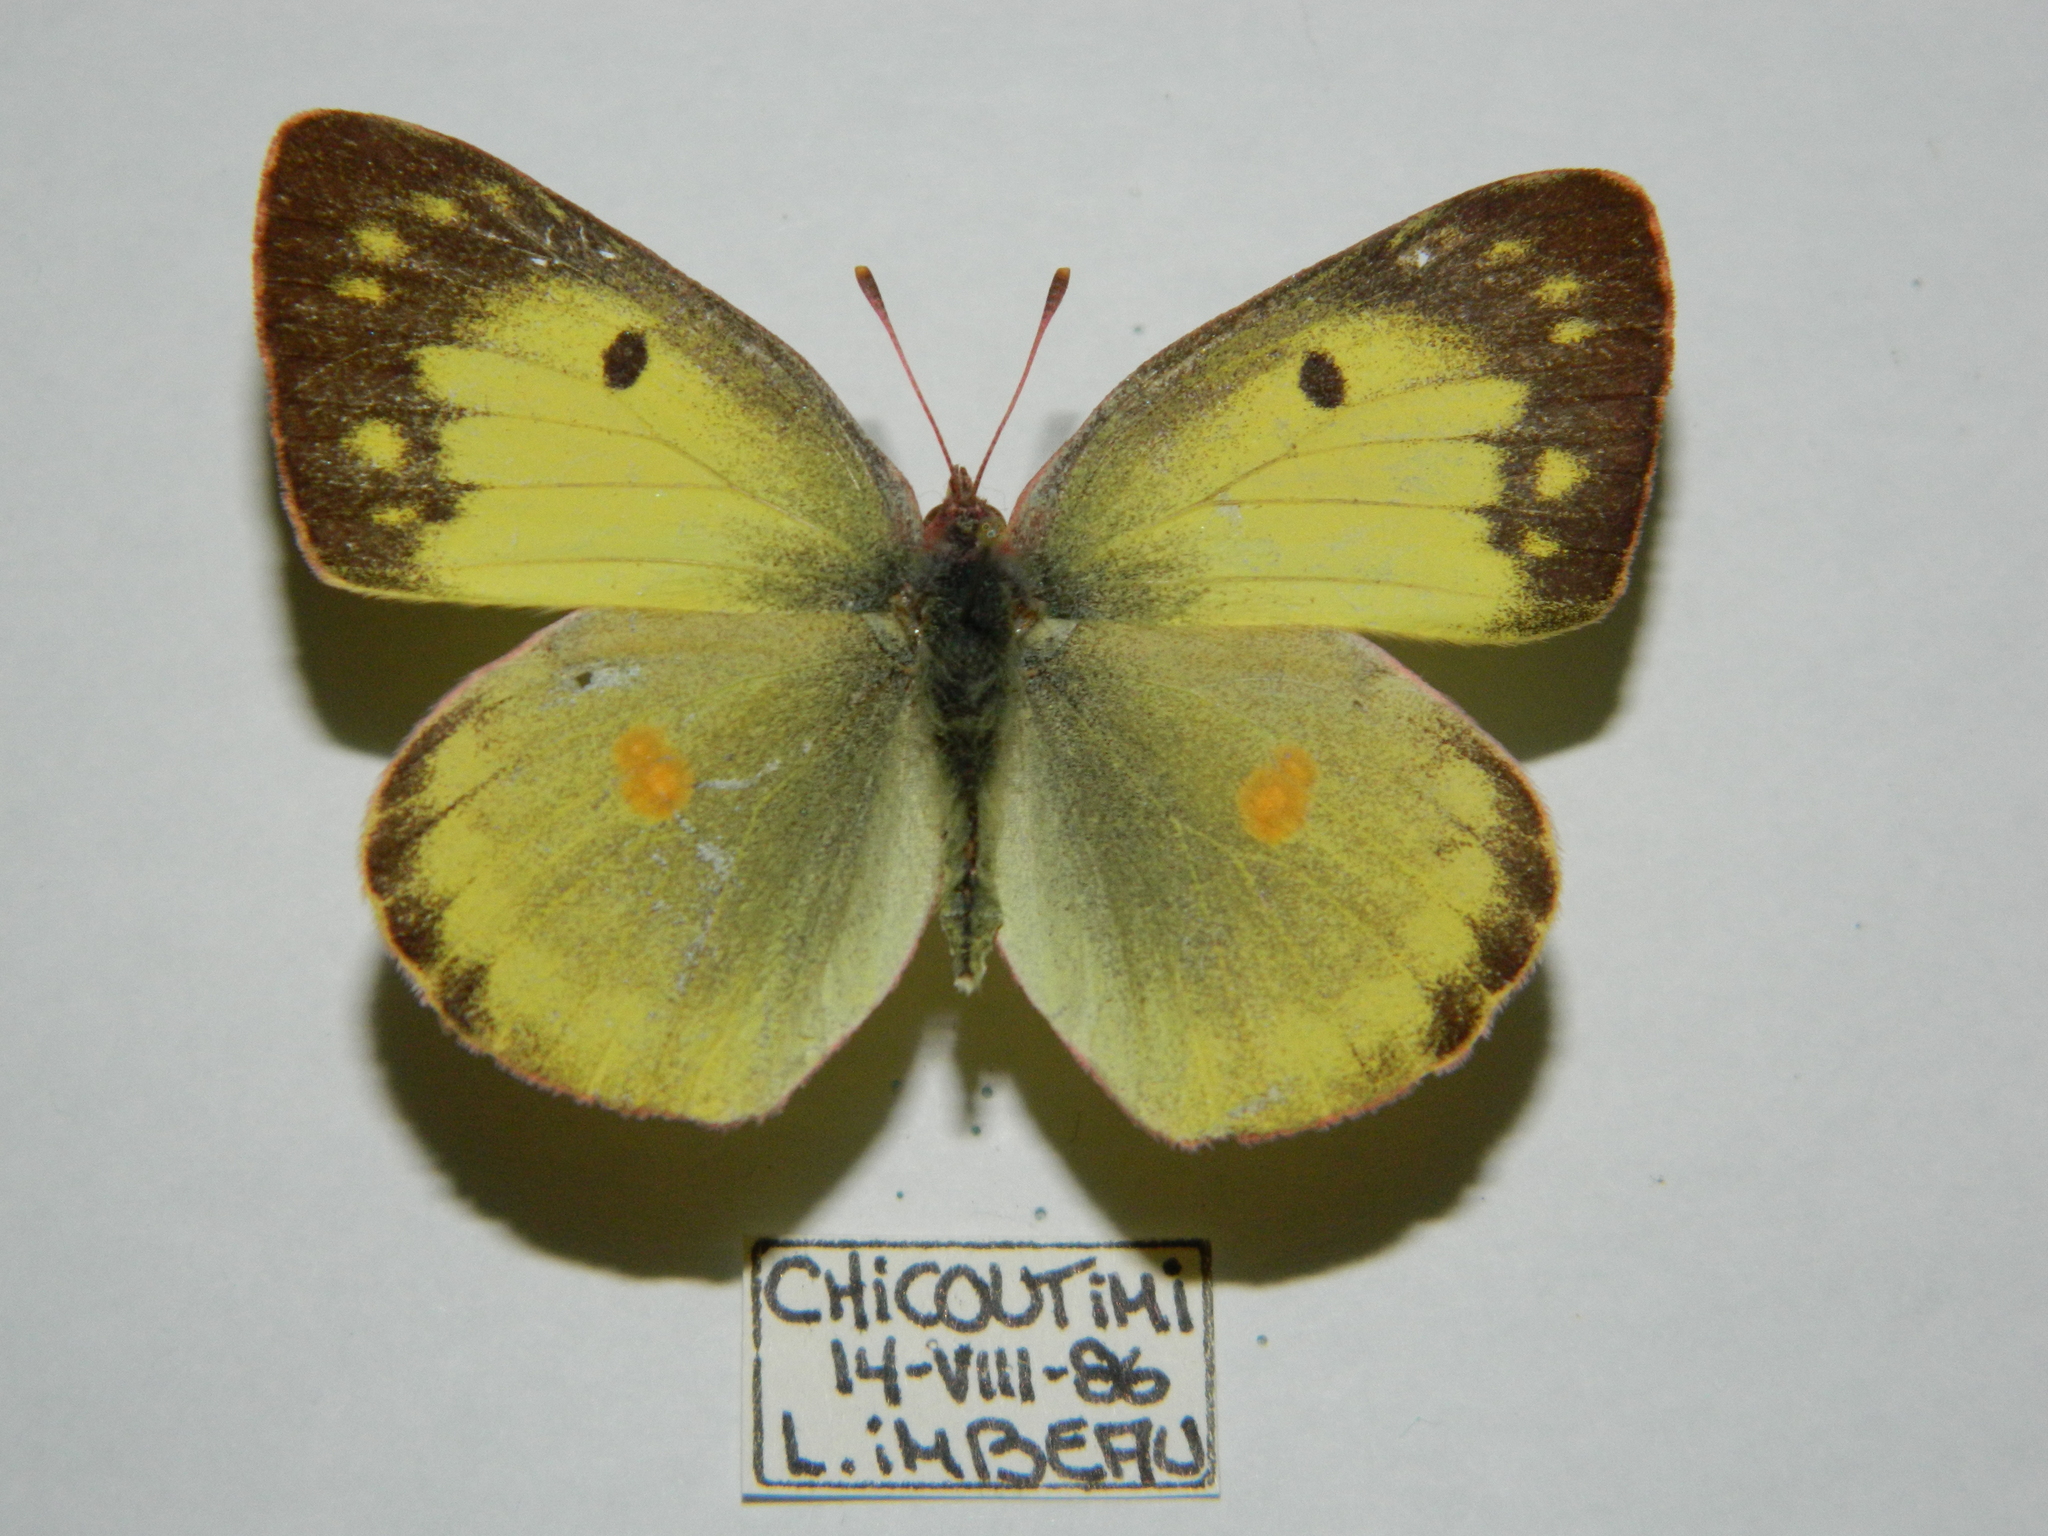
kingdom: Animalia
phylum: Arthropoda
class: Insecta
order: Lepidoptera
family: Pieridae
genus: Colias
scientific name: Colias philodice
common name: Clouded sulphur
